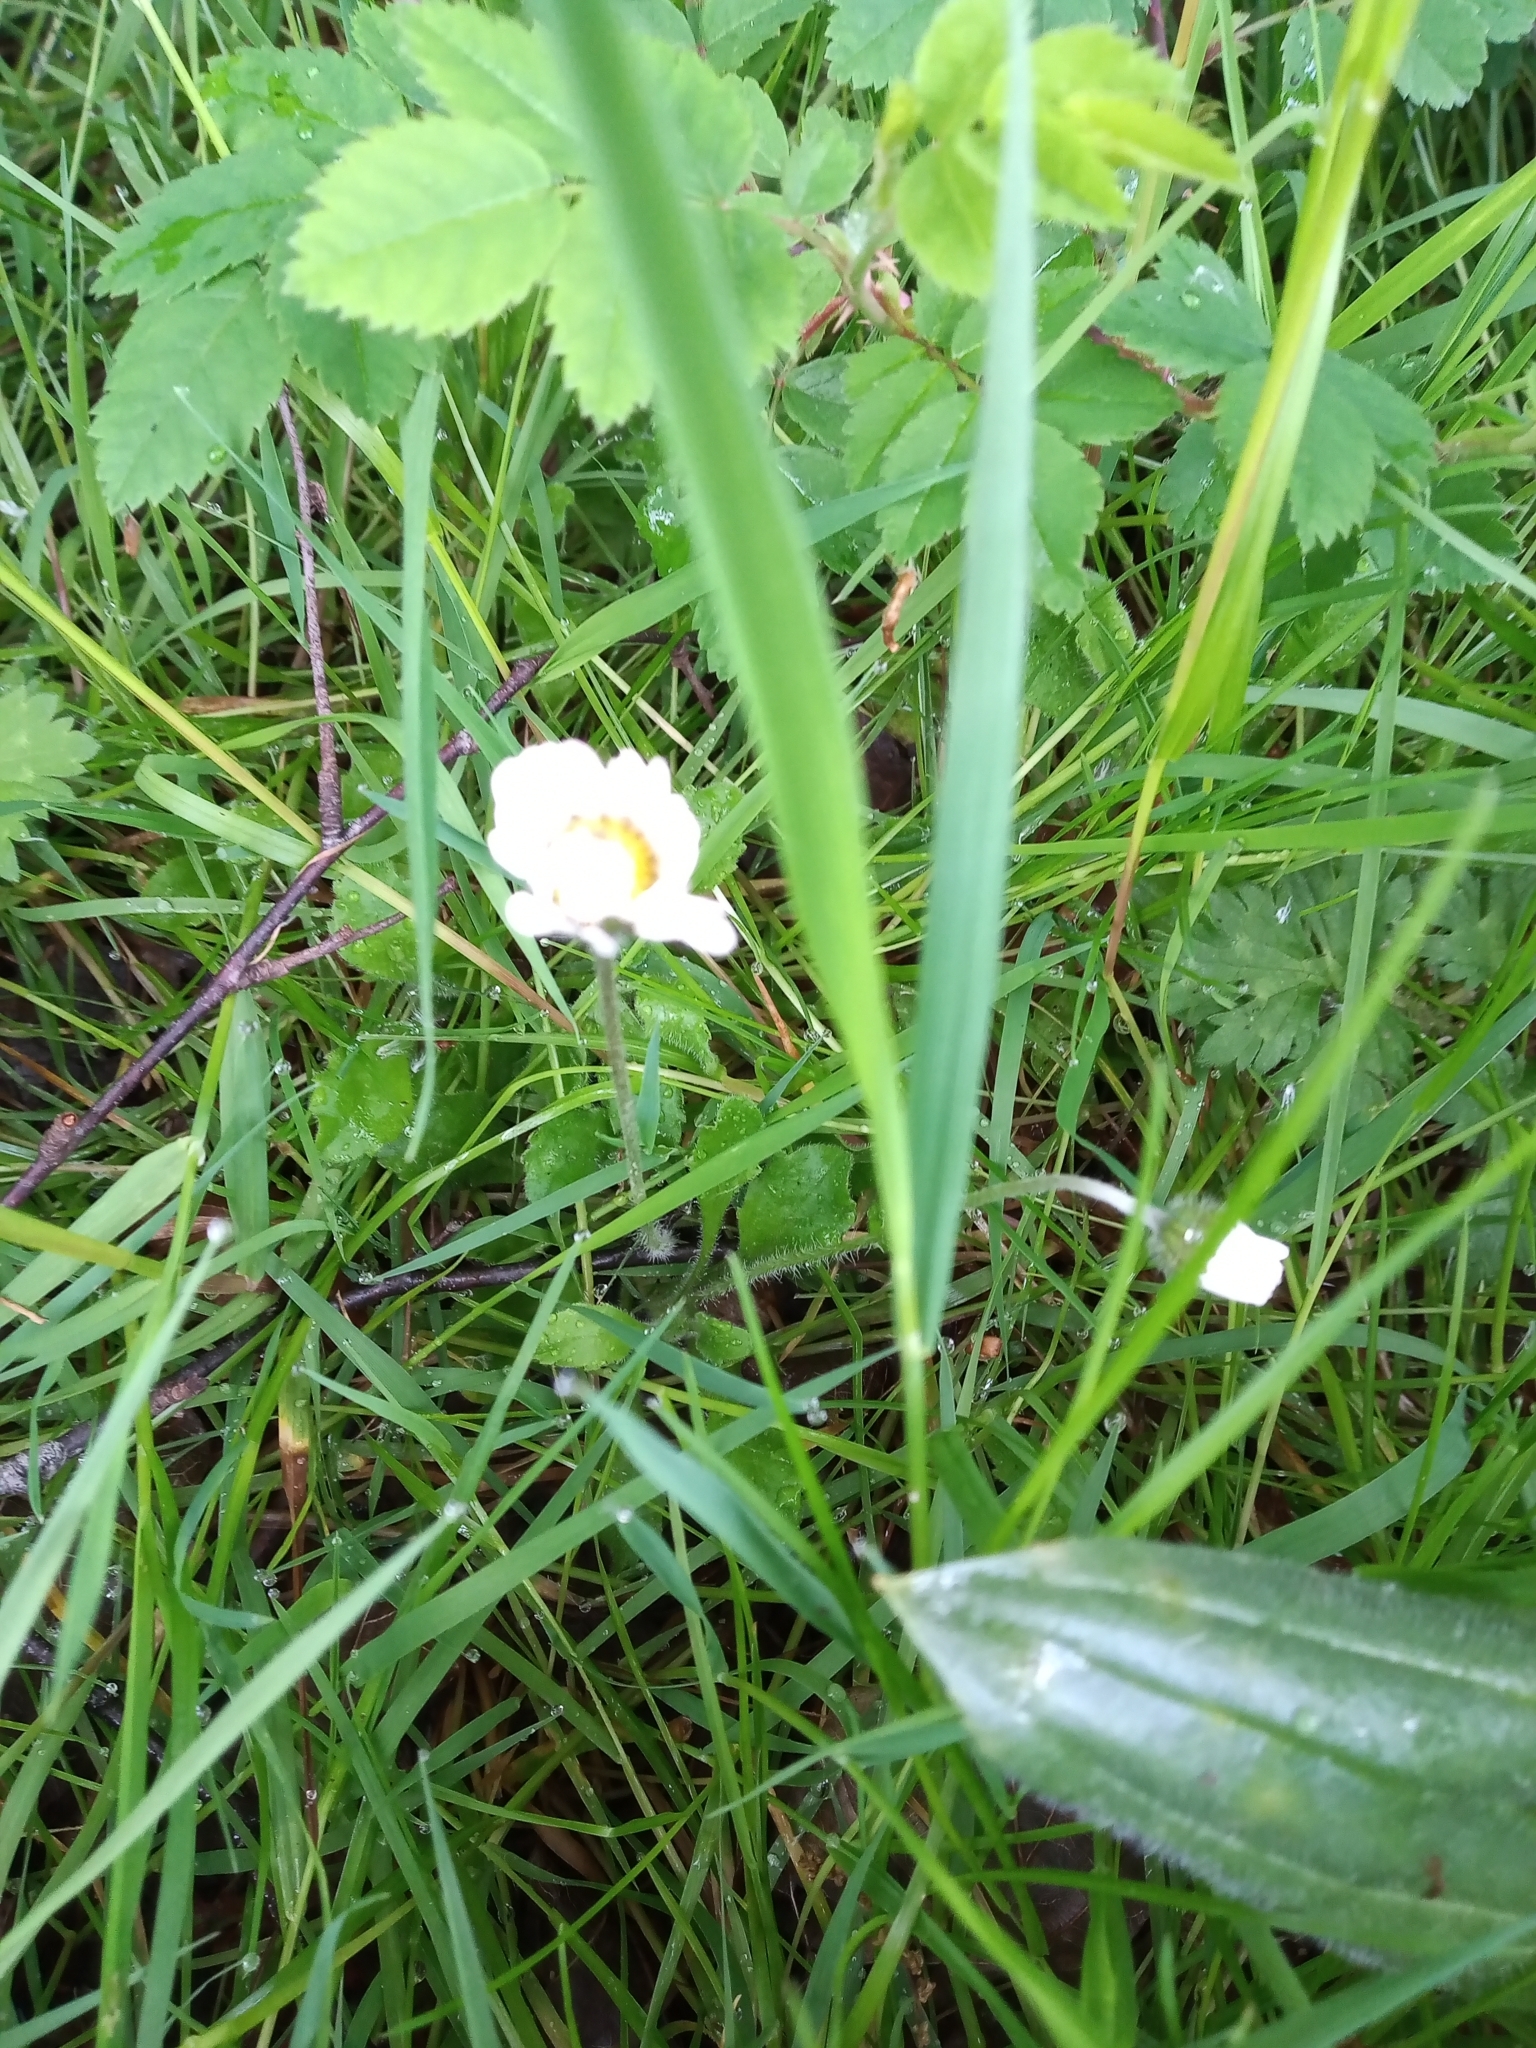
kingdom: Plantae
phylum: Tracheophyta
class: Magnoliopsida
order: Asterales
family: Asteraceae
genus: Bellis
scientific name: Bellis perennis
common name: Lawndaisy
